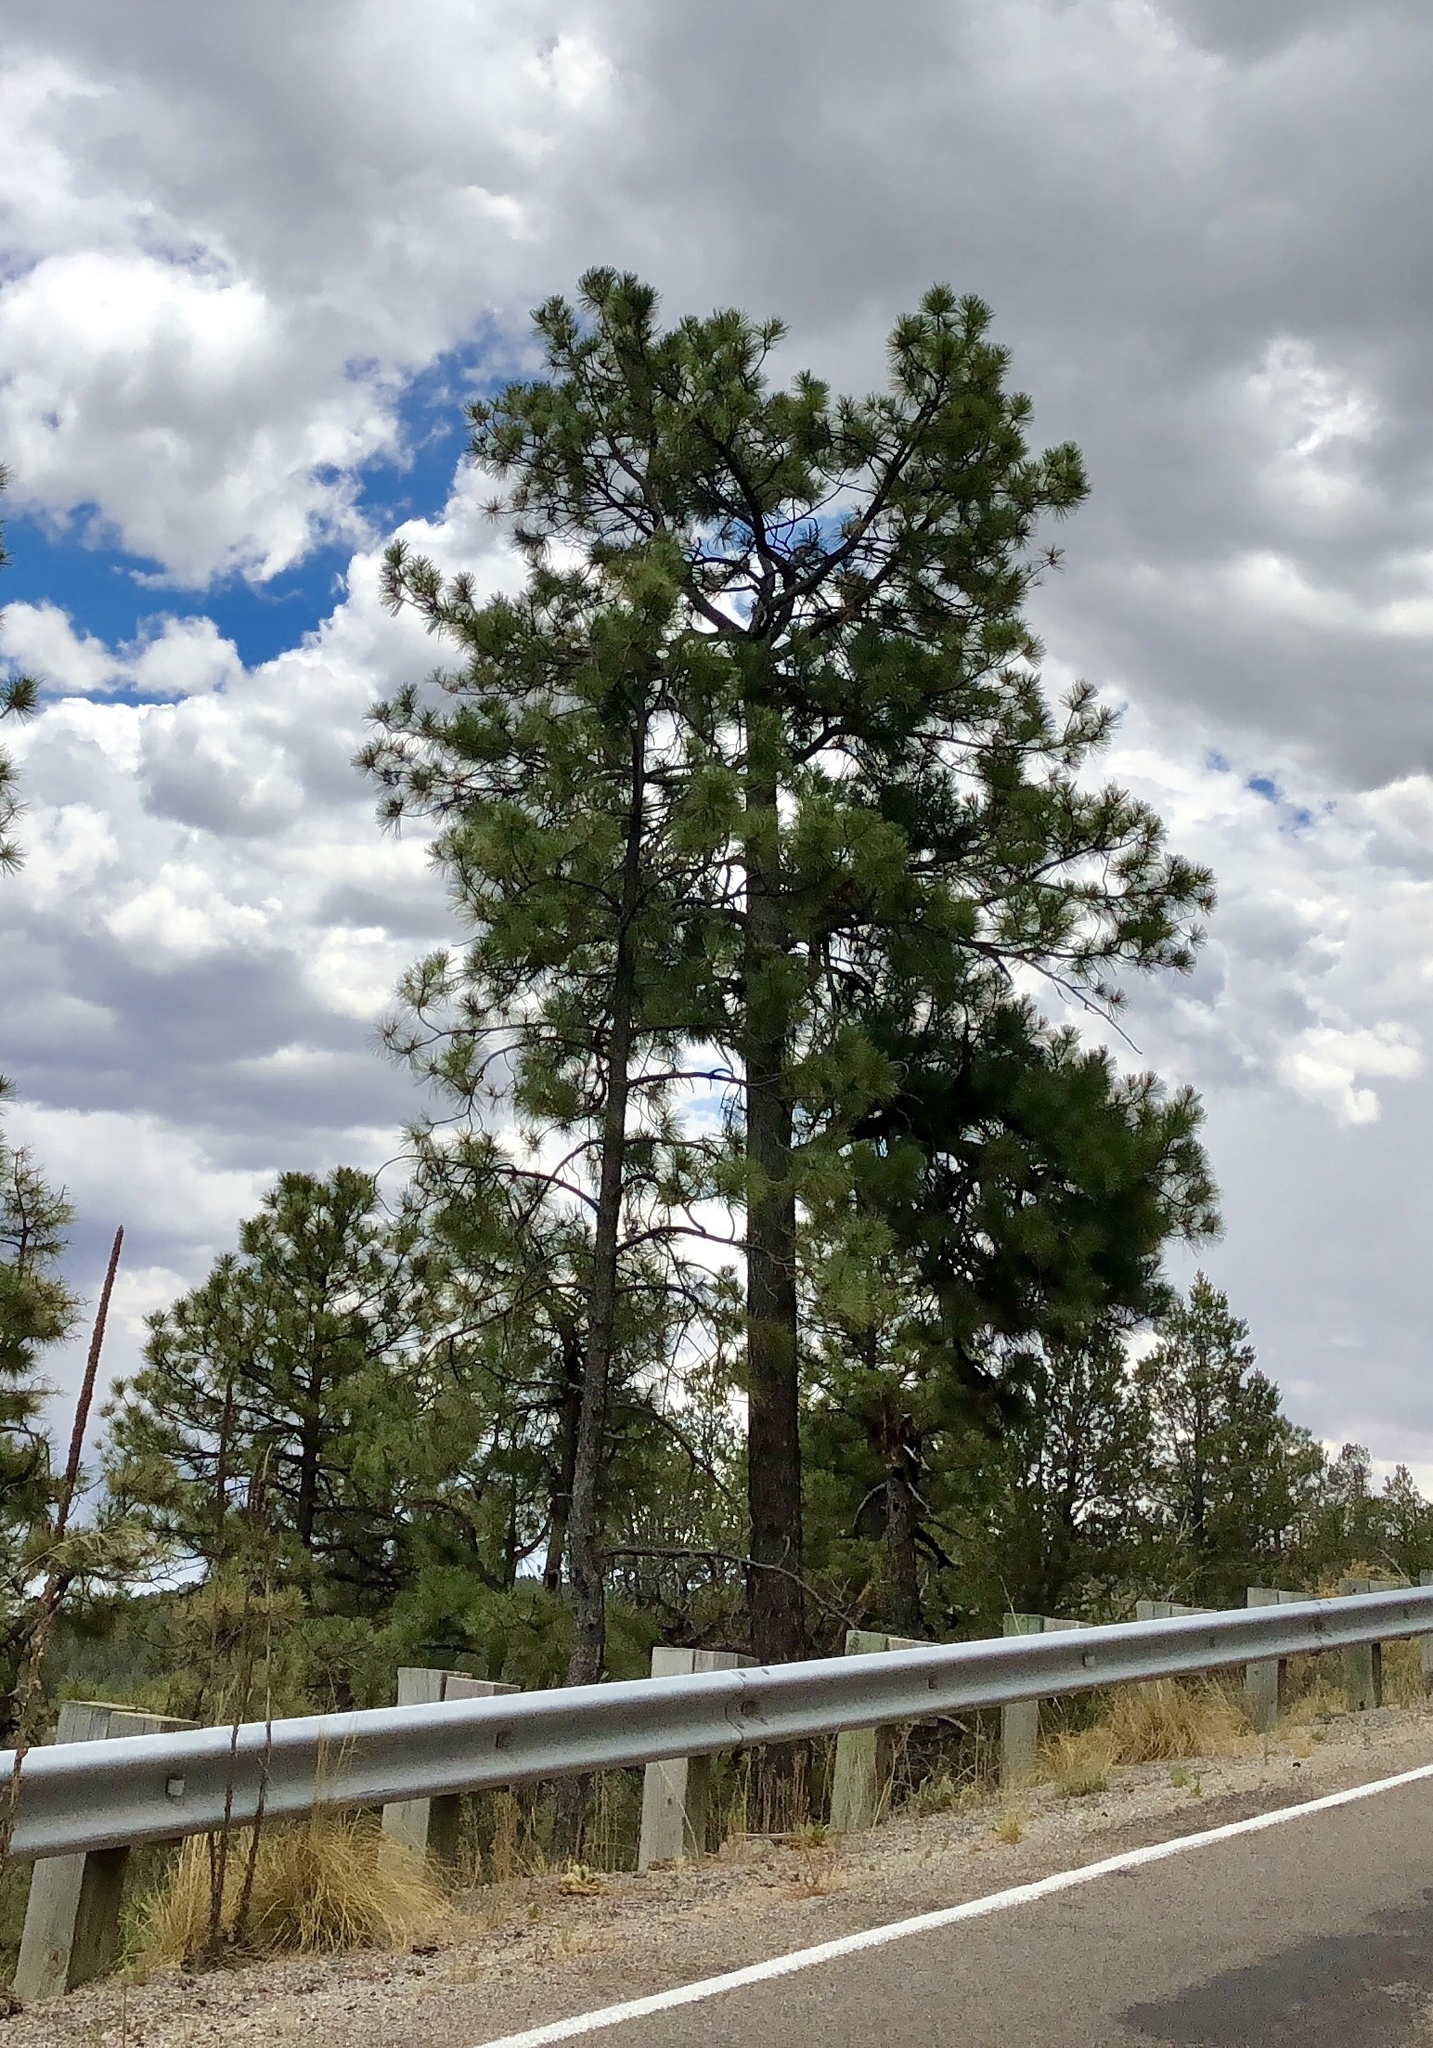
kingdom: Plantae
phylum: Tracheophyta
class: Pinopsida
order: Pinales
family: Pinaceae
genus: Pinus
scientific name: Pinus ponderosa
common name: Western yellow-pine
